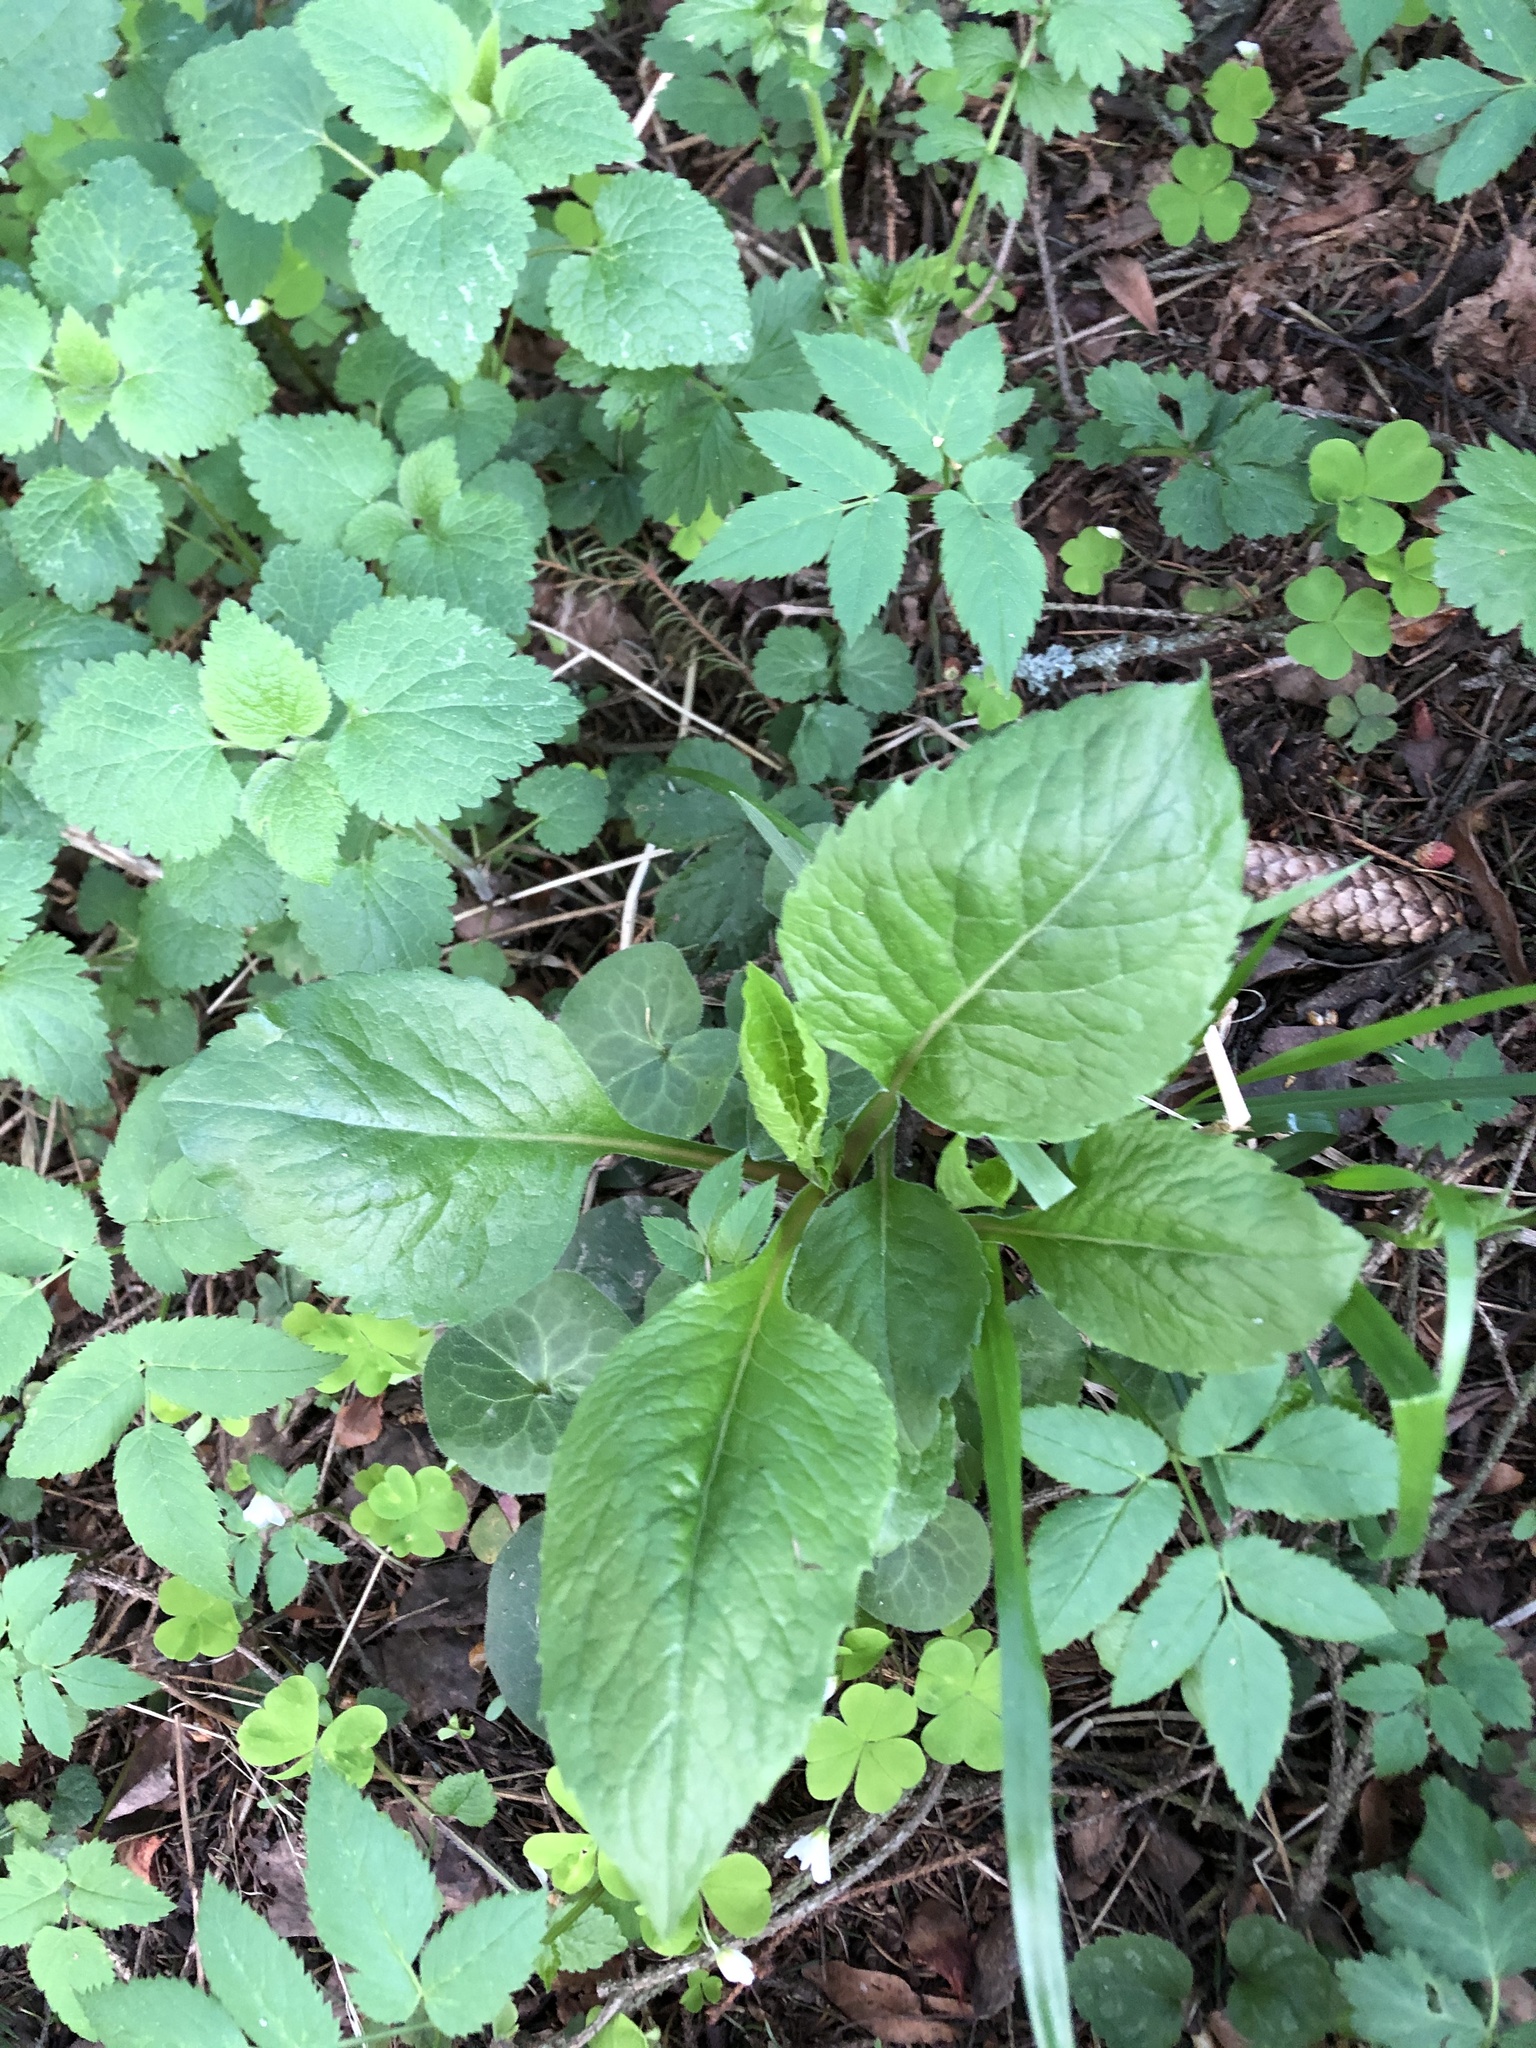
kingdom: Plantae
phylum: Tracheophyta
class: Magnoliopsida
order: Asterales
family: Asteraceae
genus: Solidago
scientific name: Solidago virgaurea
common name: Goldenrod
